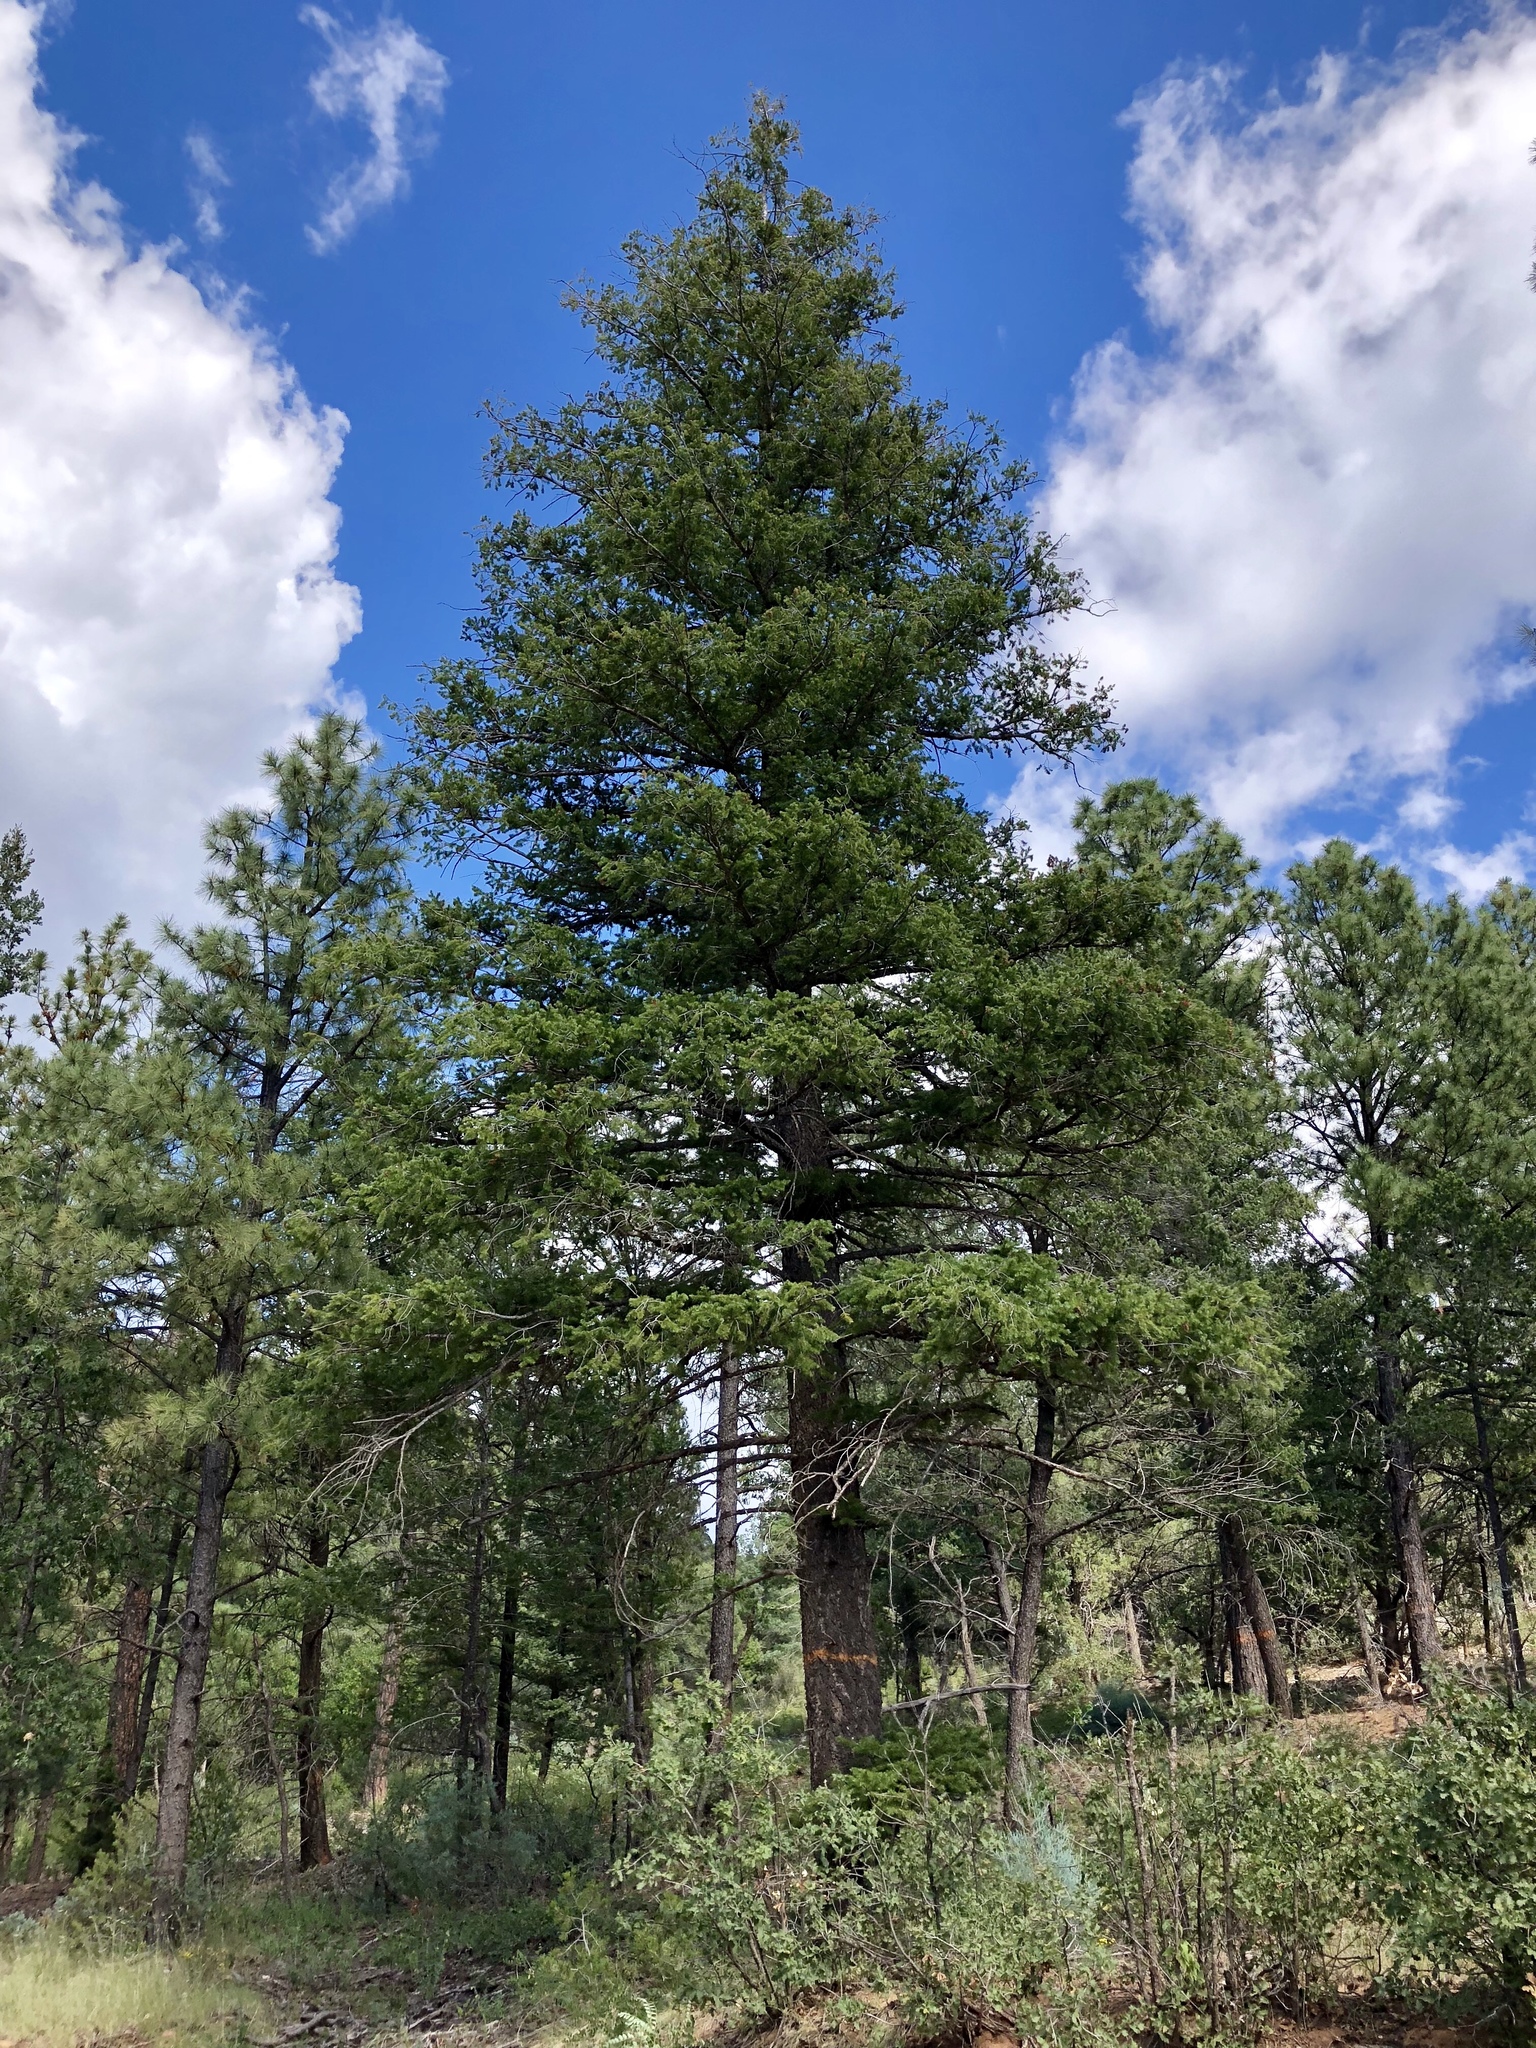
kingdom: Plantae
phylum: Tracheophyta
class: Pinopsida
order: Pinales
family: Pinaceae
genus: Pseudotsuga
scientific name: Pseudotsuga menziesii
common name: Douglas fir
